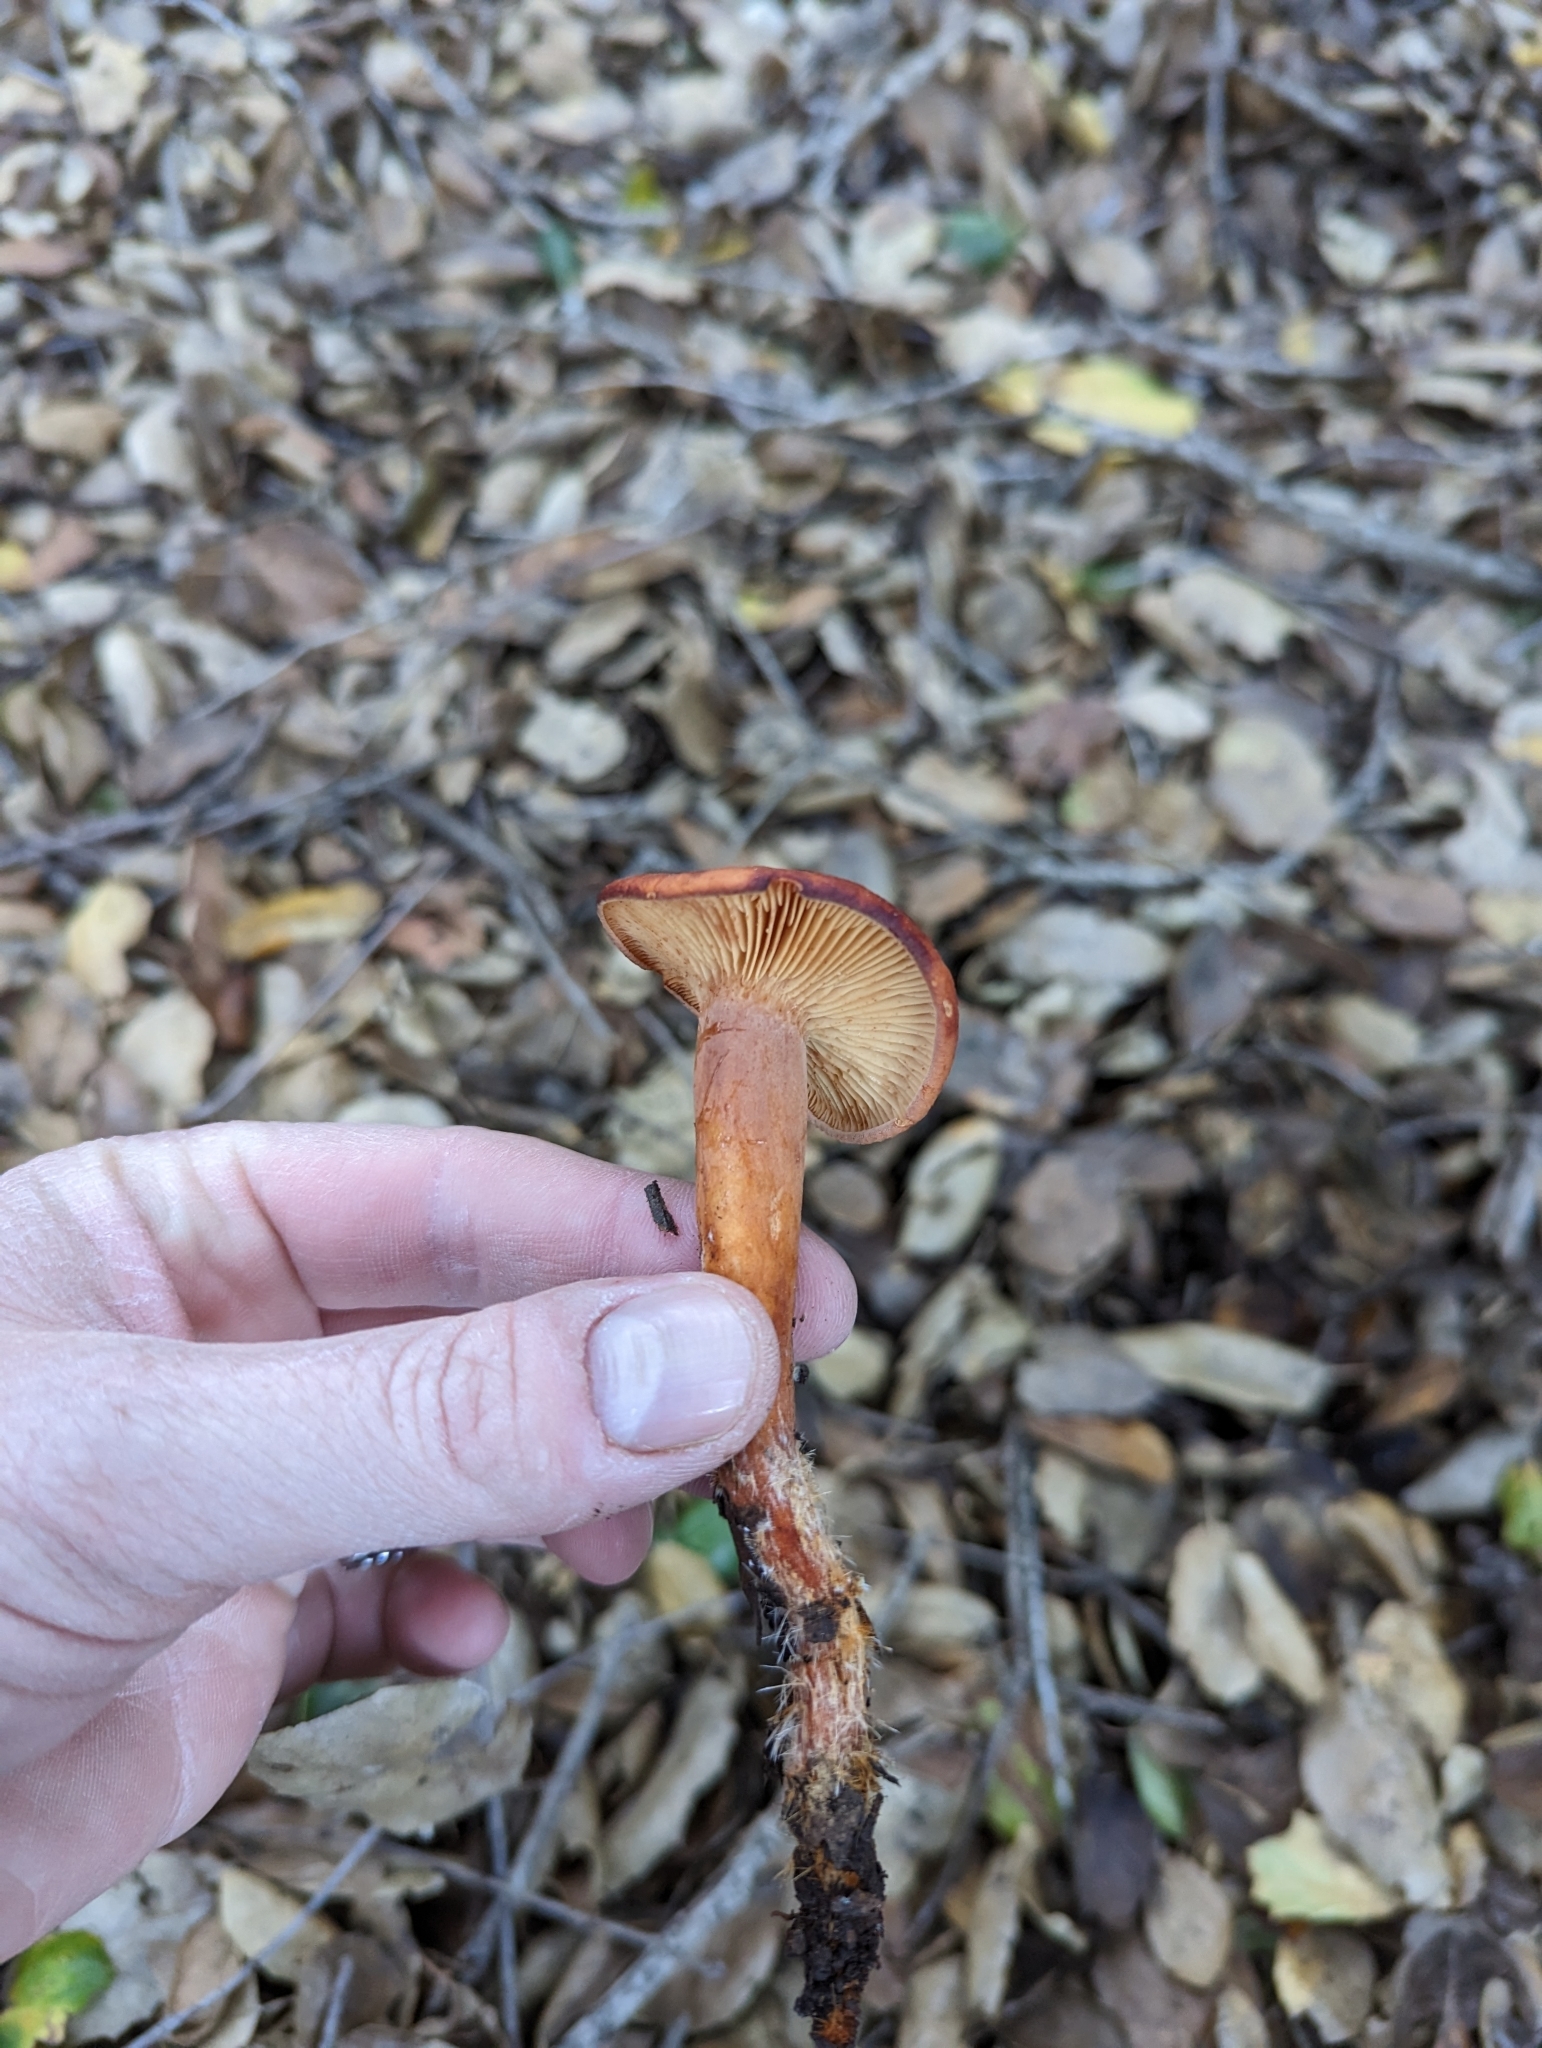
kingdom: Fungi
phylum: Basidiomycota
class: Agaricomycetes
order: Russulales
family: Russulaceae
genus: Lactarius
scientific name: Lactarius rufulus
